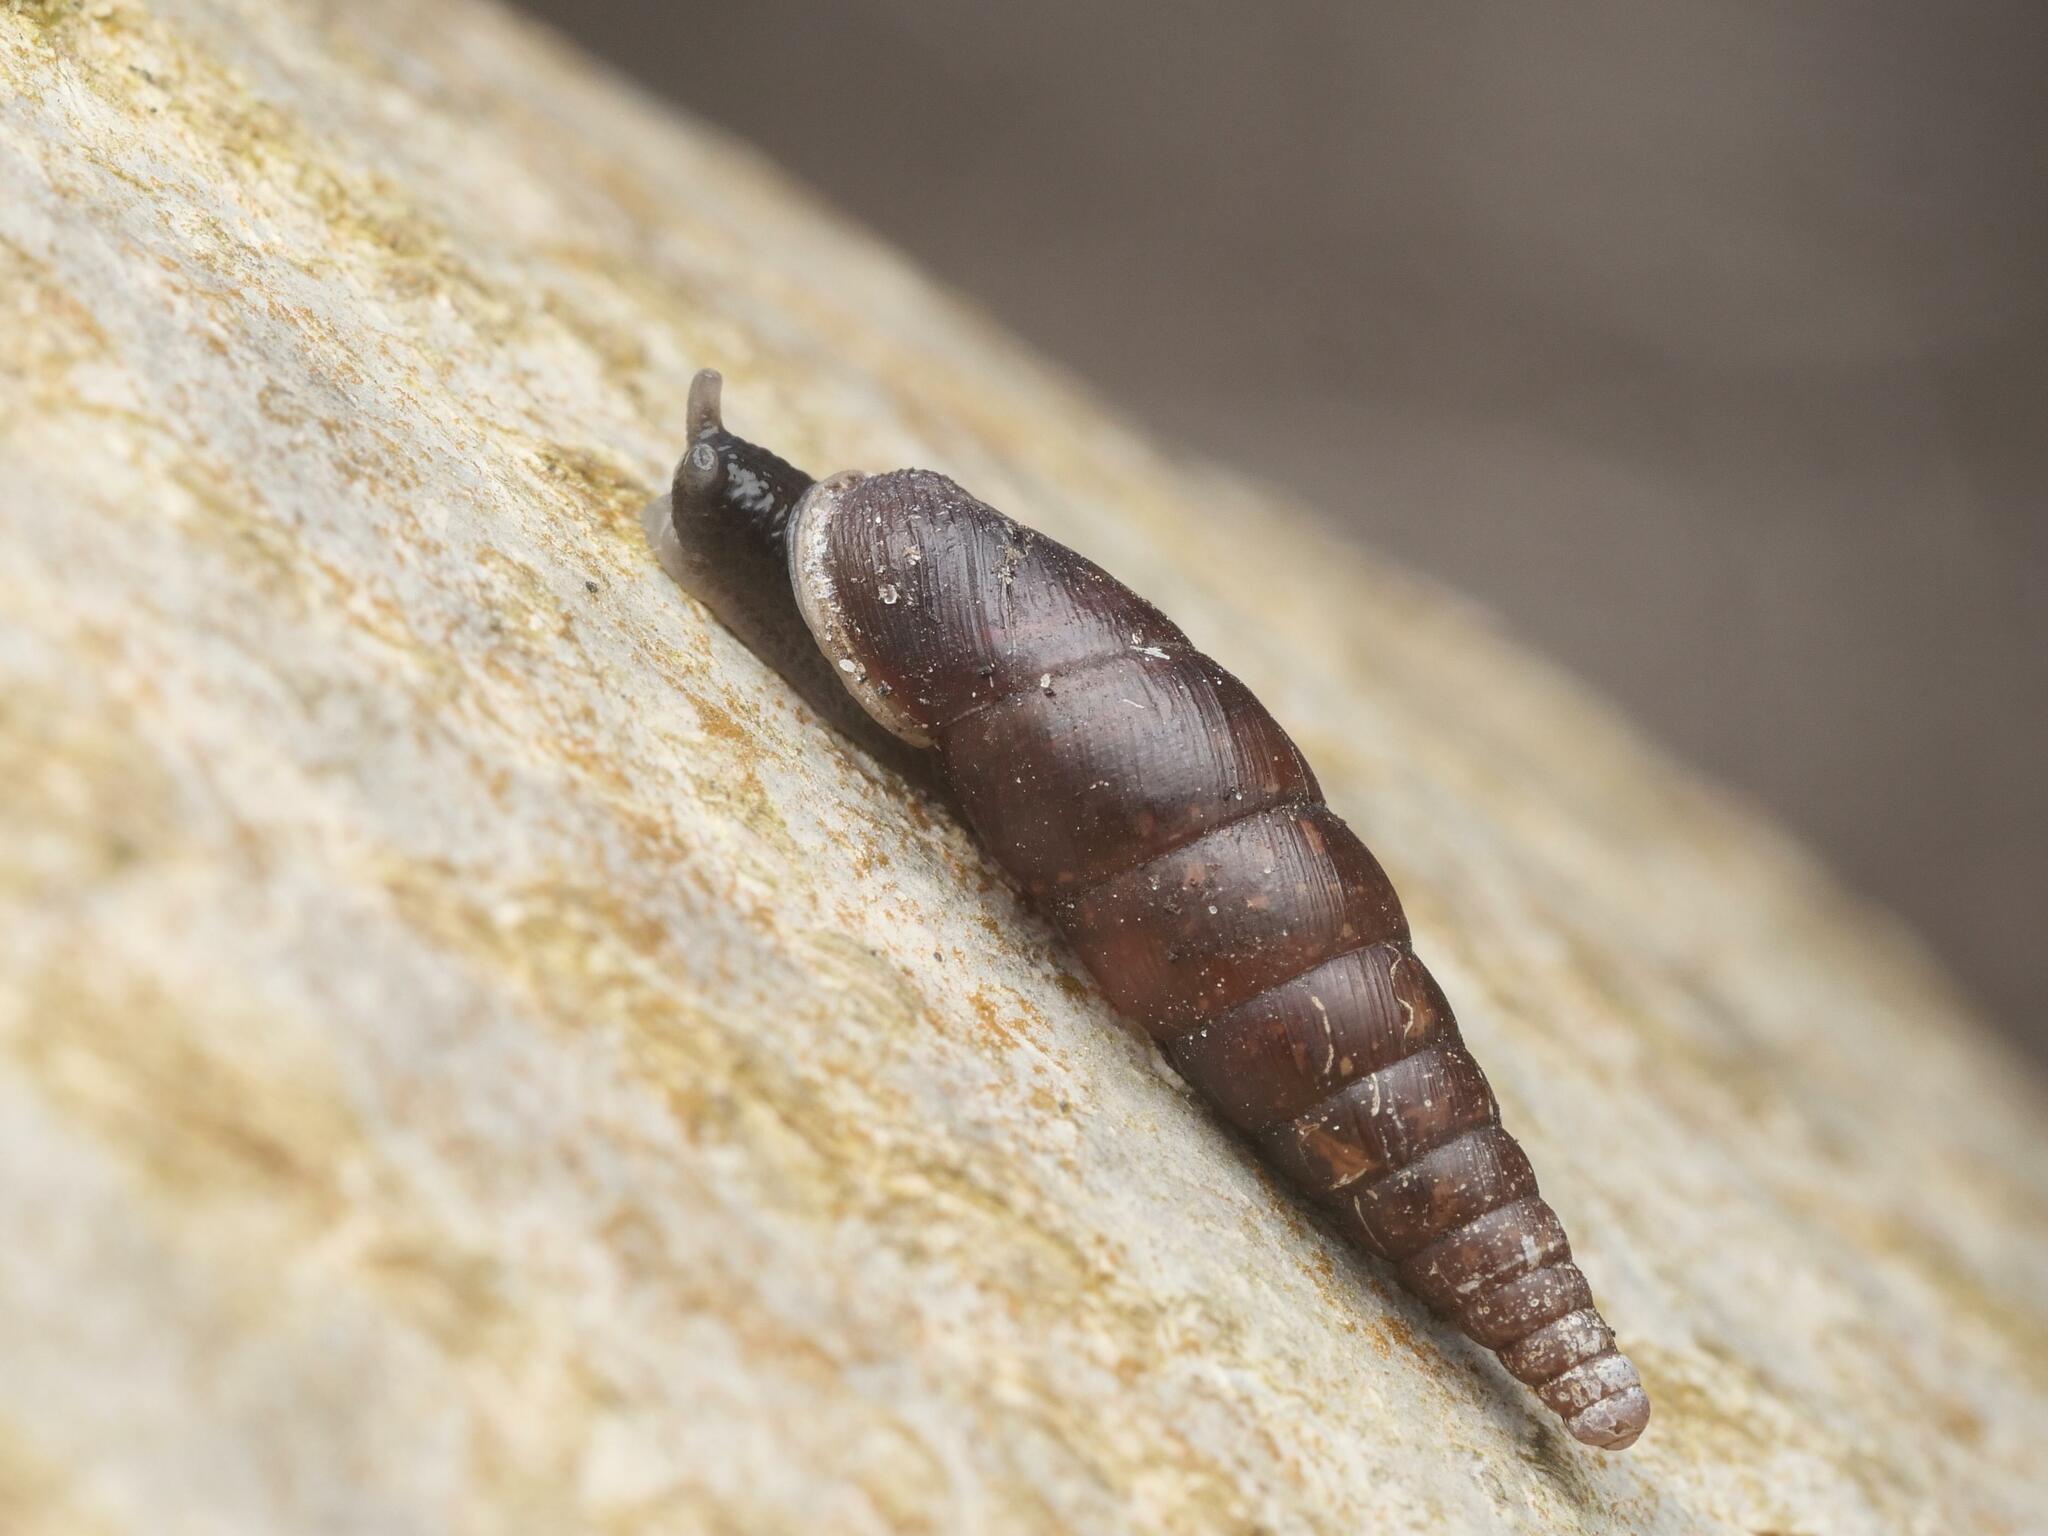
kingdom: Animalia
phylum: Mollusca
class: Gastropoda
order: Stylommatophora
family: Clausiliidae
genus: Cochlodina
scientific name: Cochlodina laminata
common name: Plaited door snail
